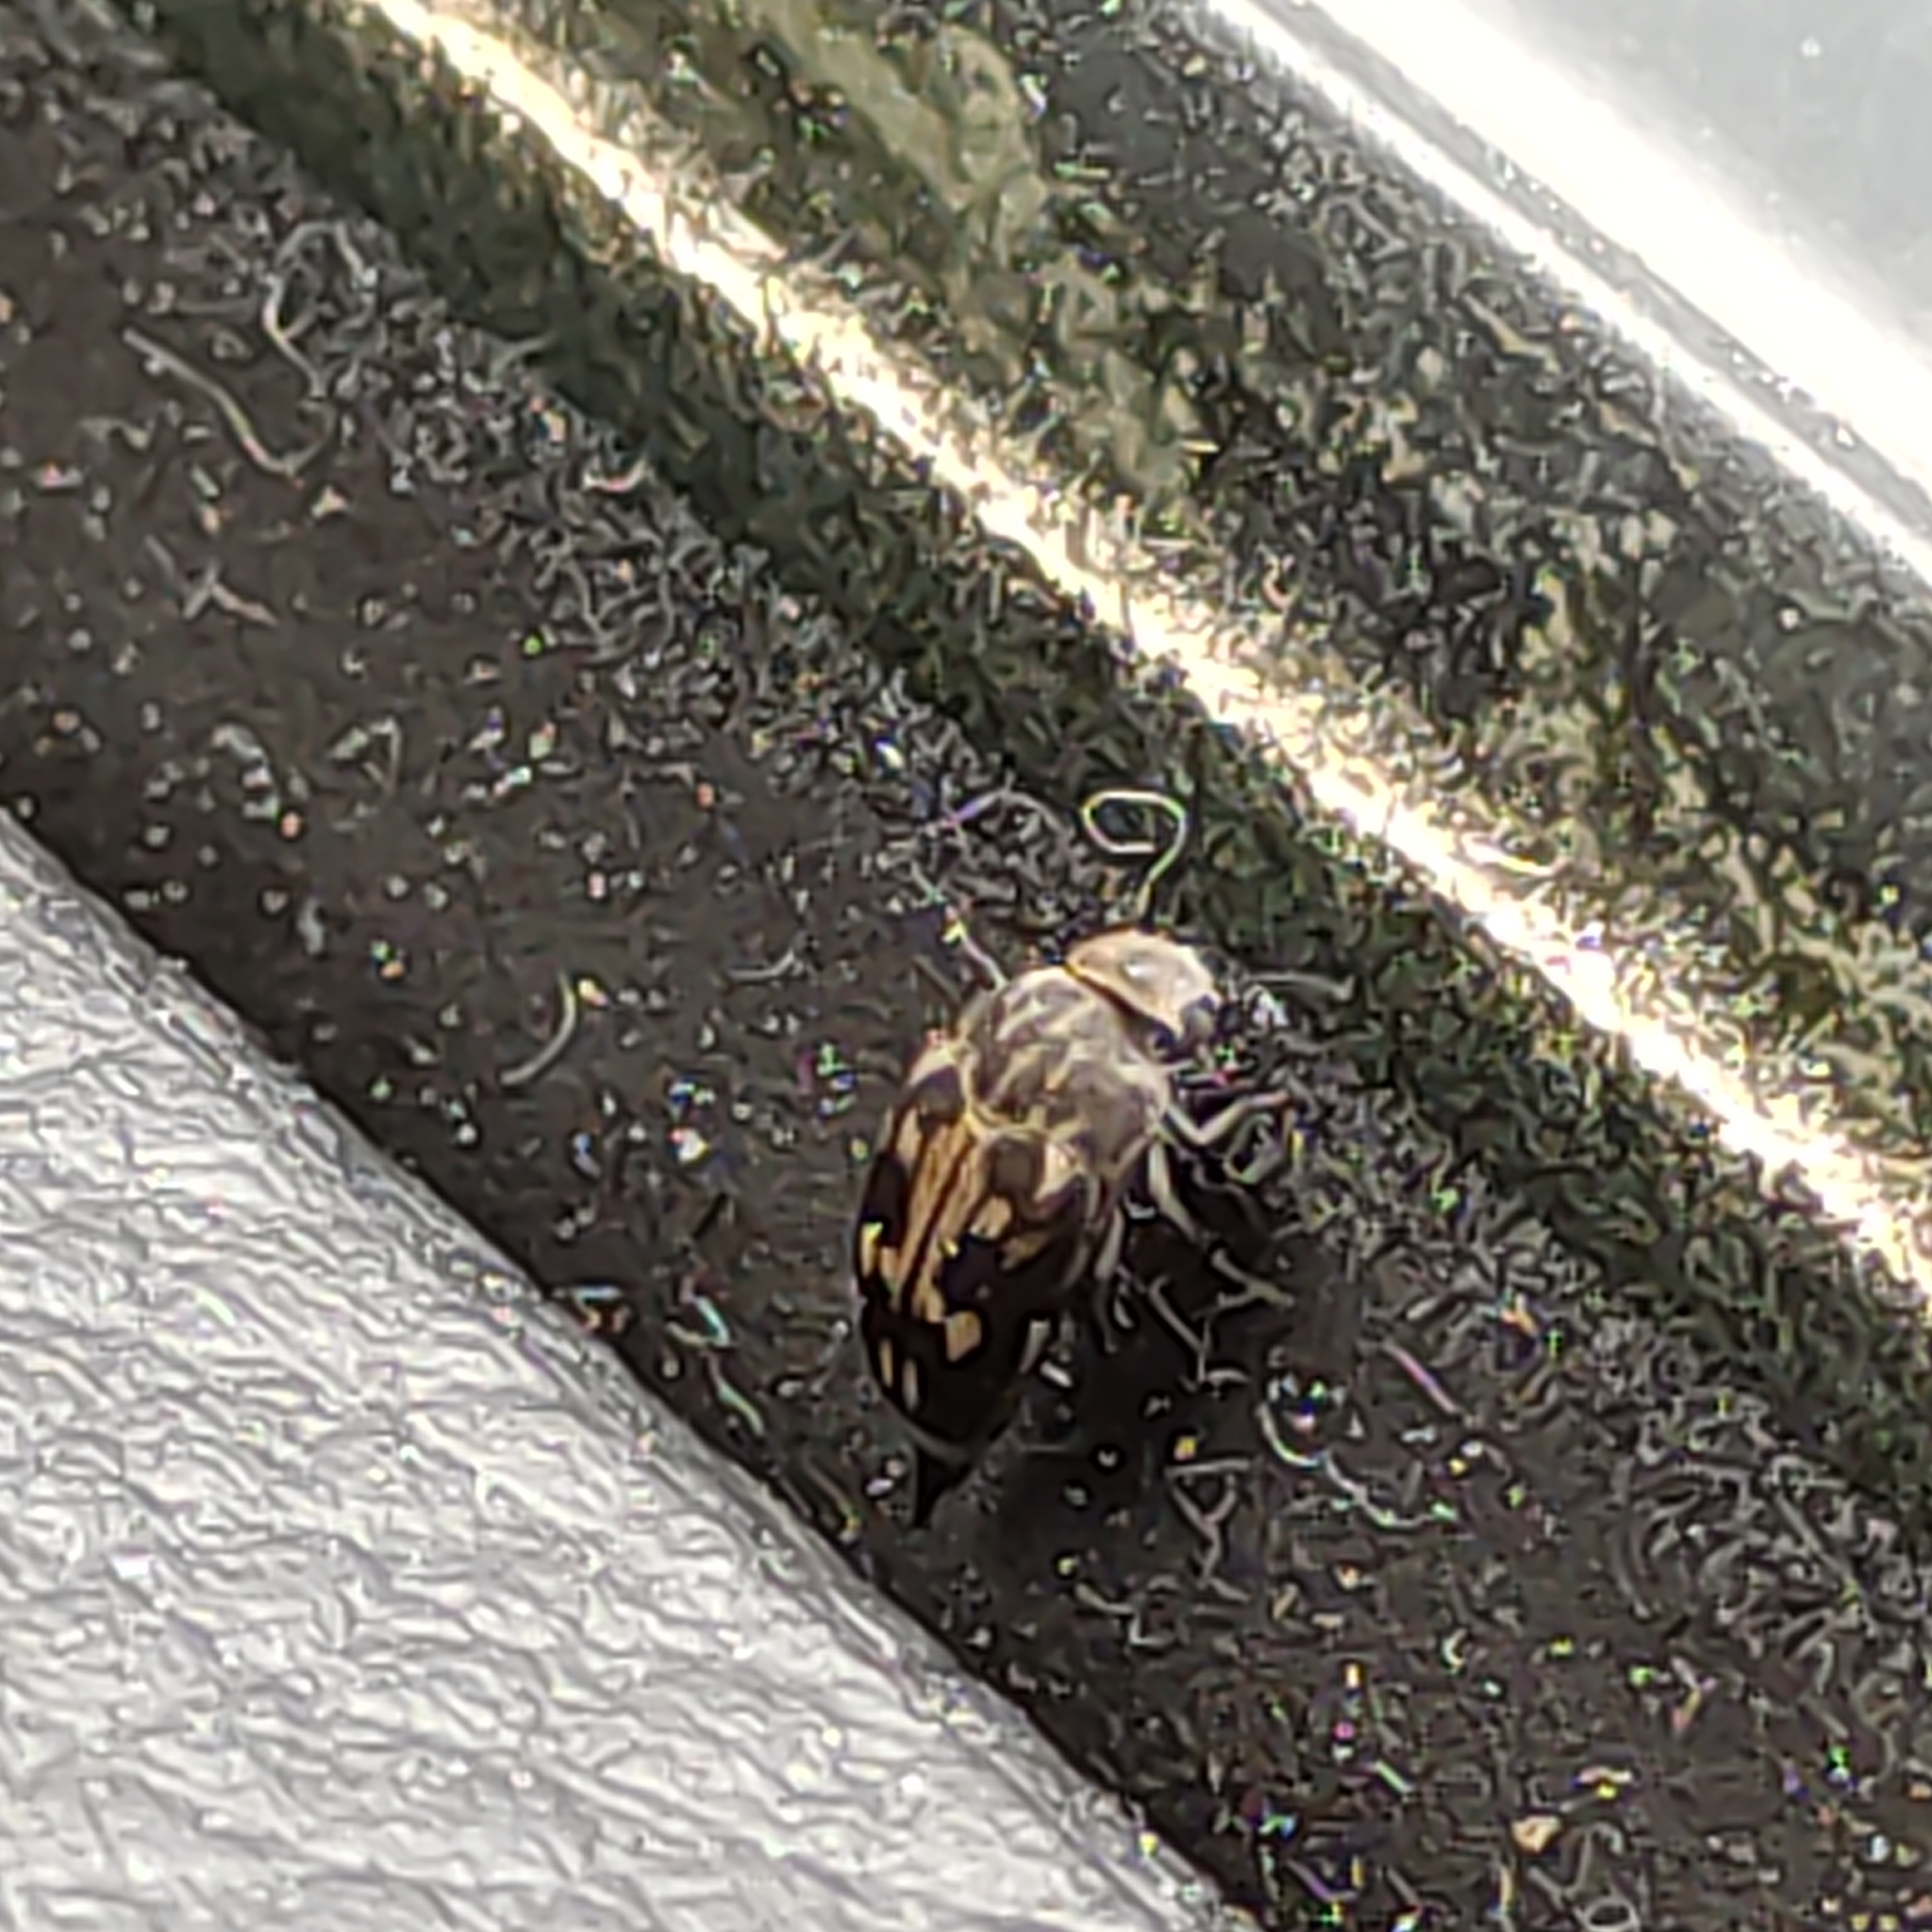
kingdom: Animalia
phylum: Arthropoda
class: Insecta
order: Coleoptera
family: Mordellidae
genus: Zeamordella
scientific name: Zeamordella monacha
